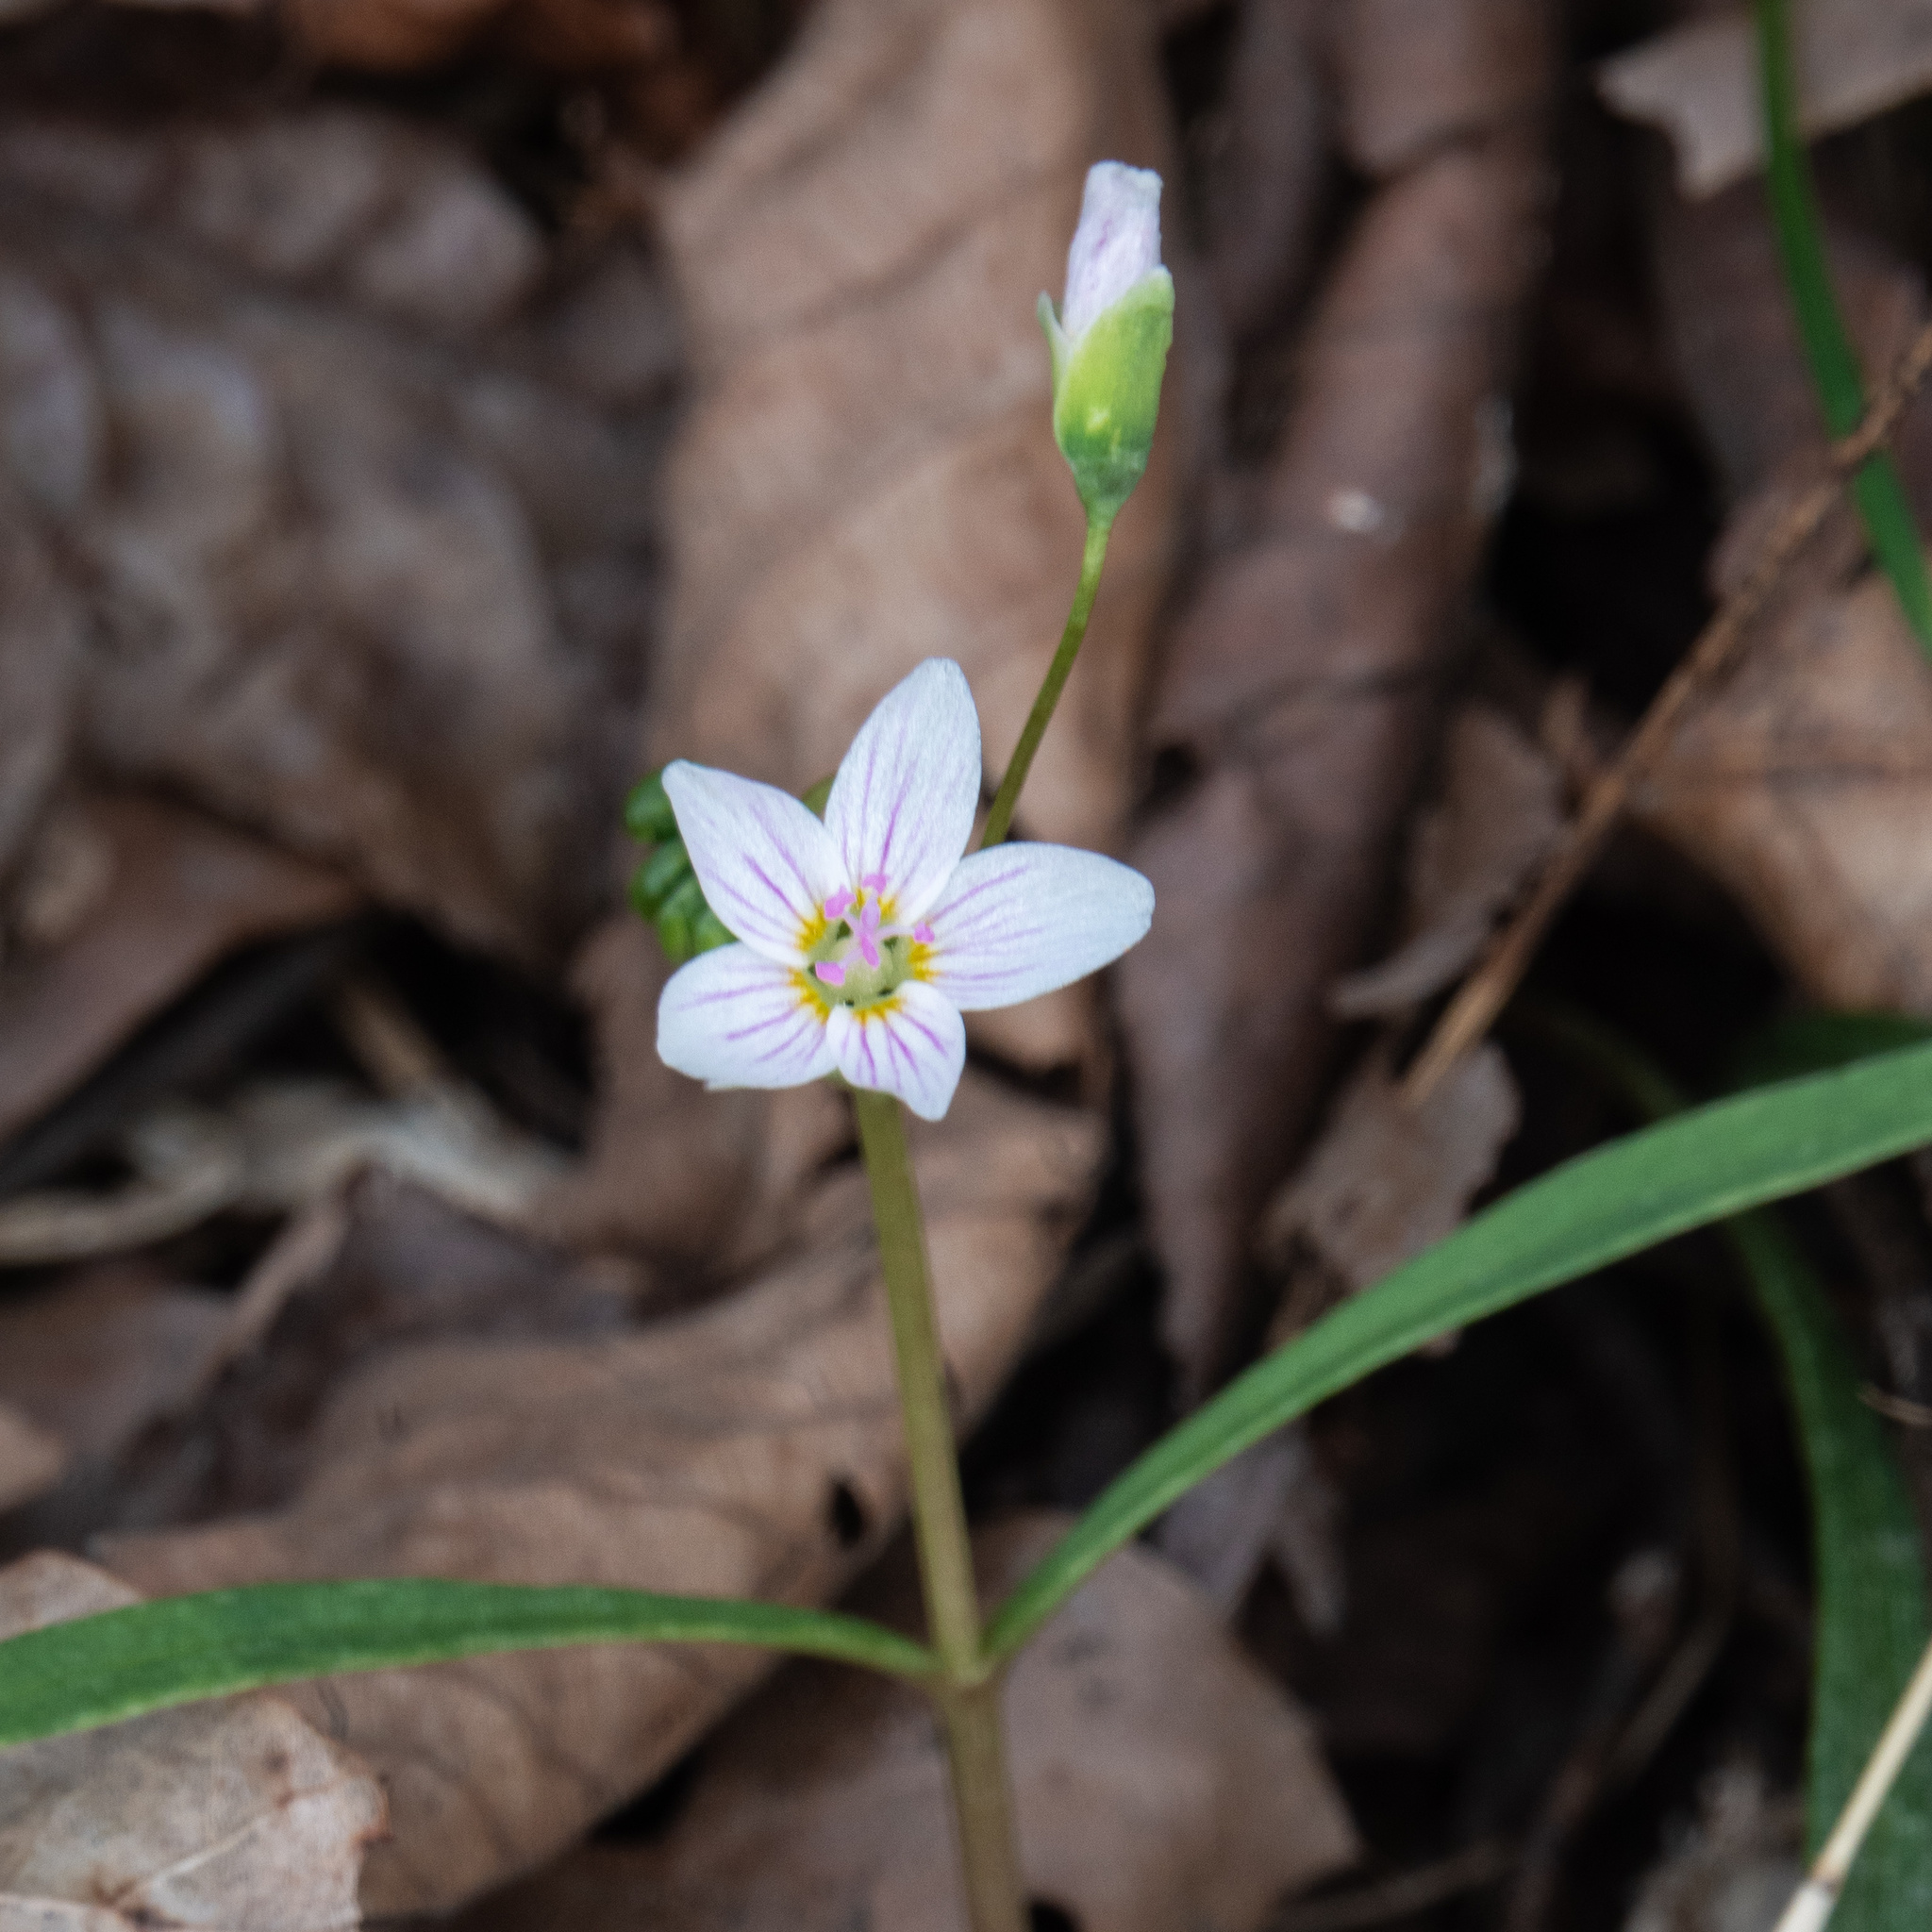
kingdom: Plantae
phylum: Tracheophyta
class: Magnoliopsida
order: Caryophyllales
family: Montiaceae
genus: Claytonia
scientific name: Claytonia virginica
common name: Virginia springbeauty
